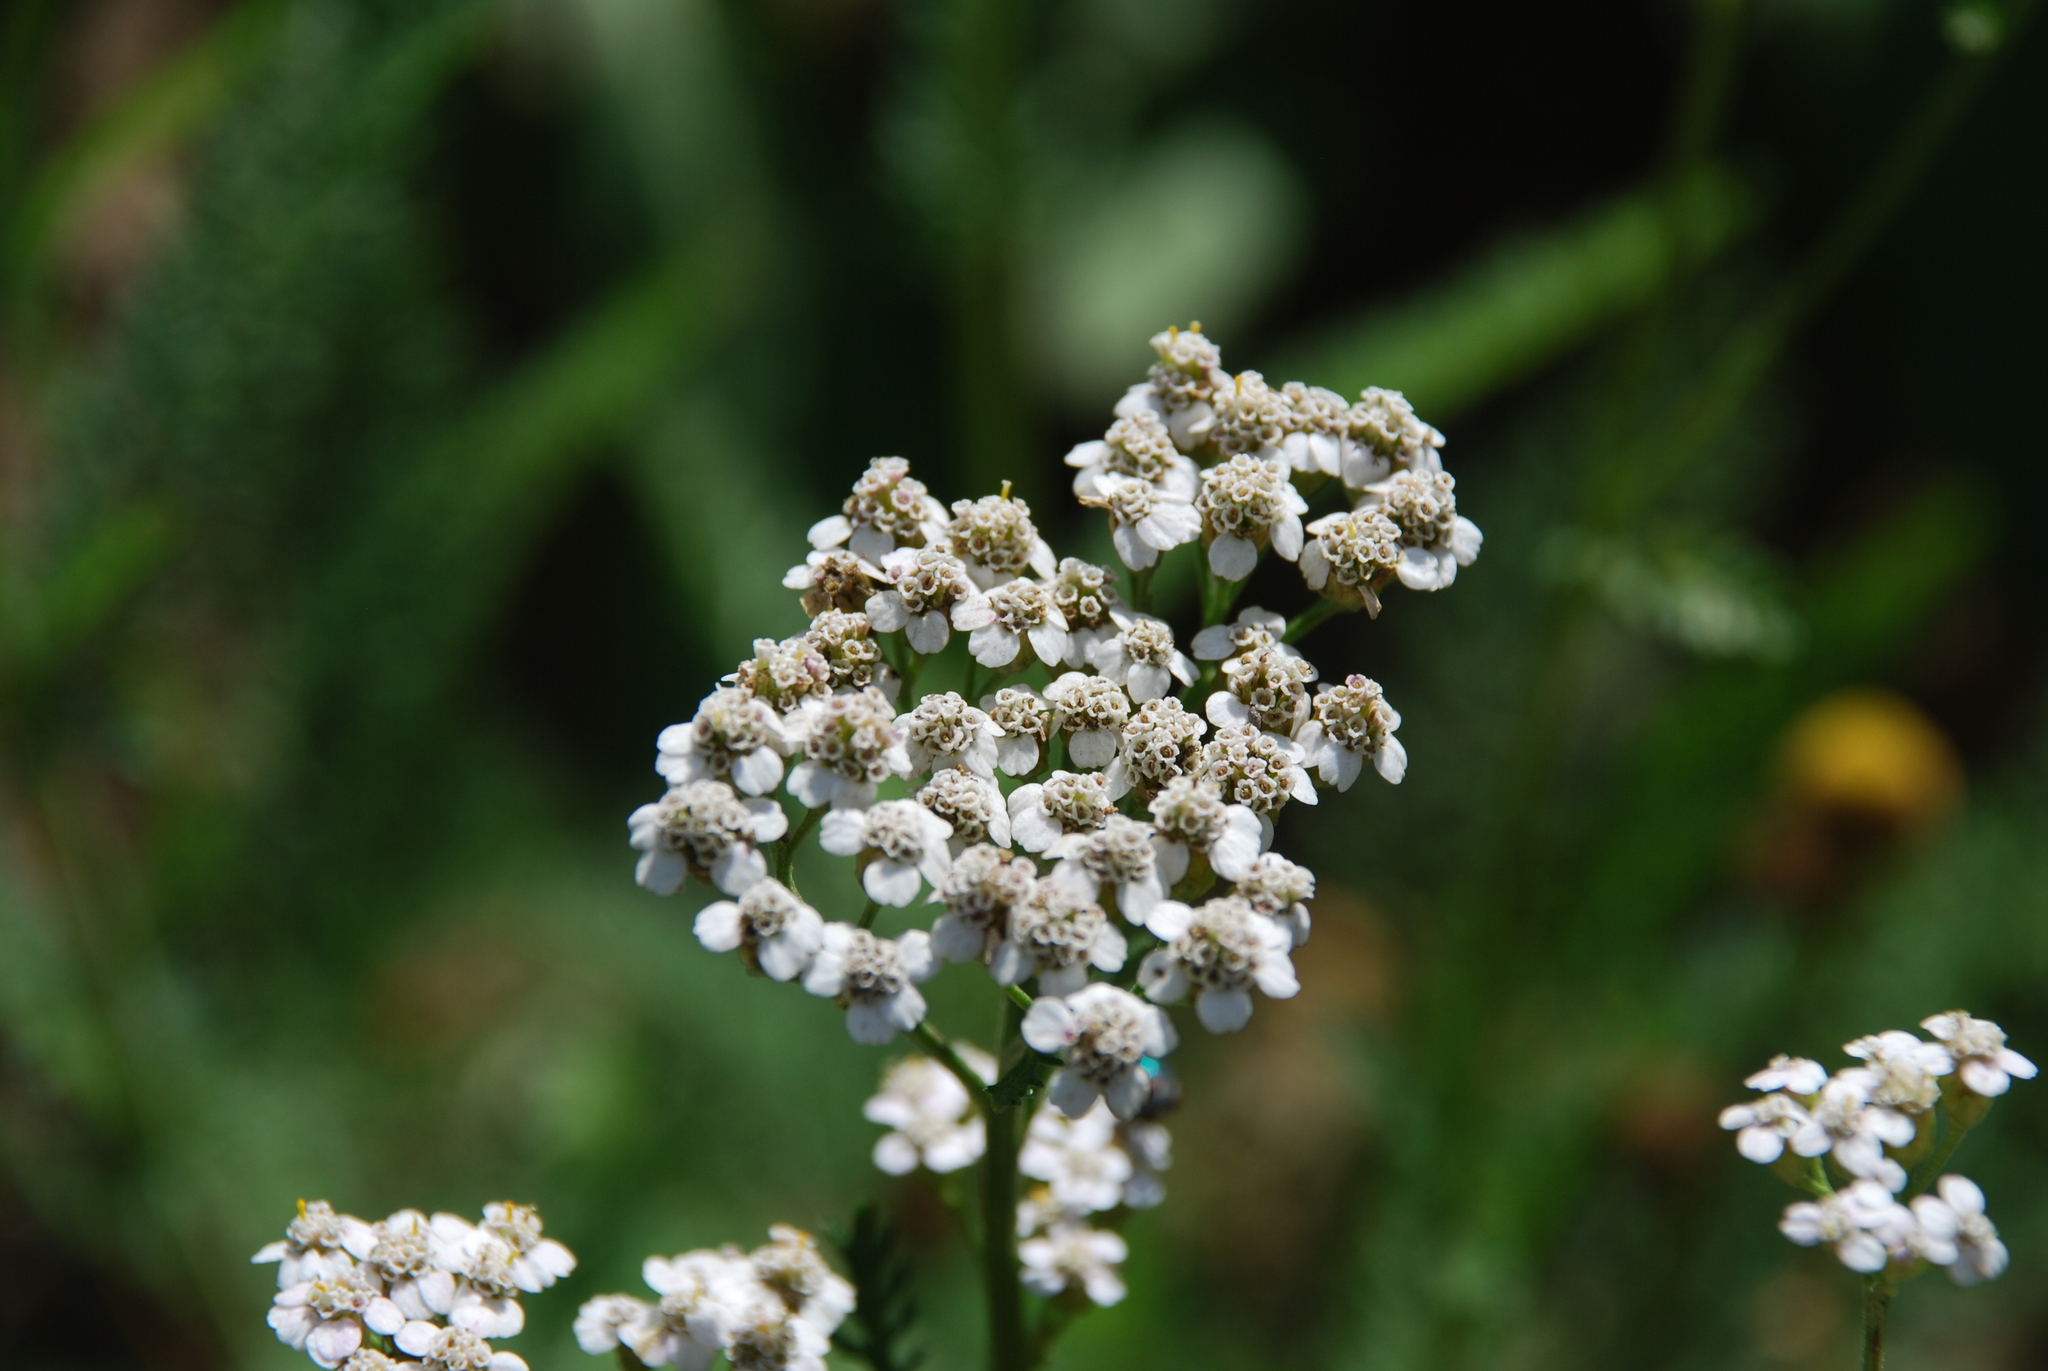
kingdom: Plantae
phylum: Tracheophyta
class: Magnoliopsida
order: Asterales
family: Asteraceae
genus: Achillea
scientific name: Achillea millefolium
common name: Yarrow
